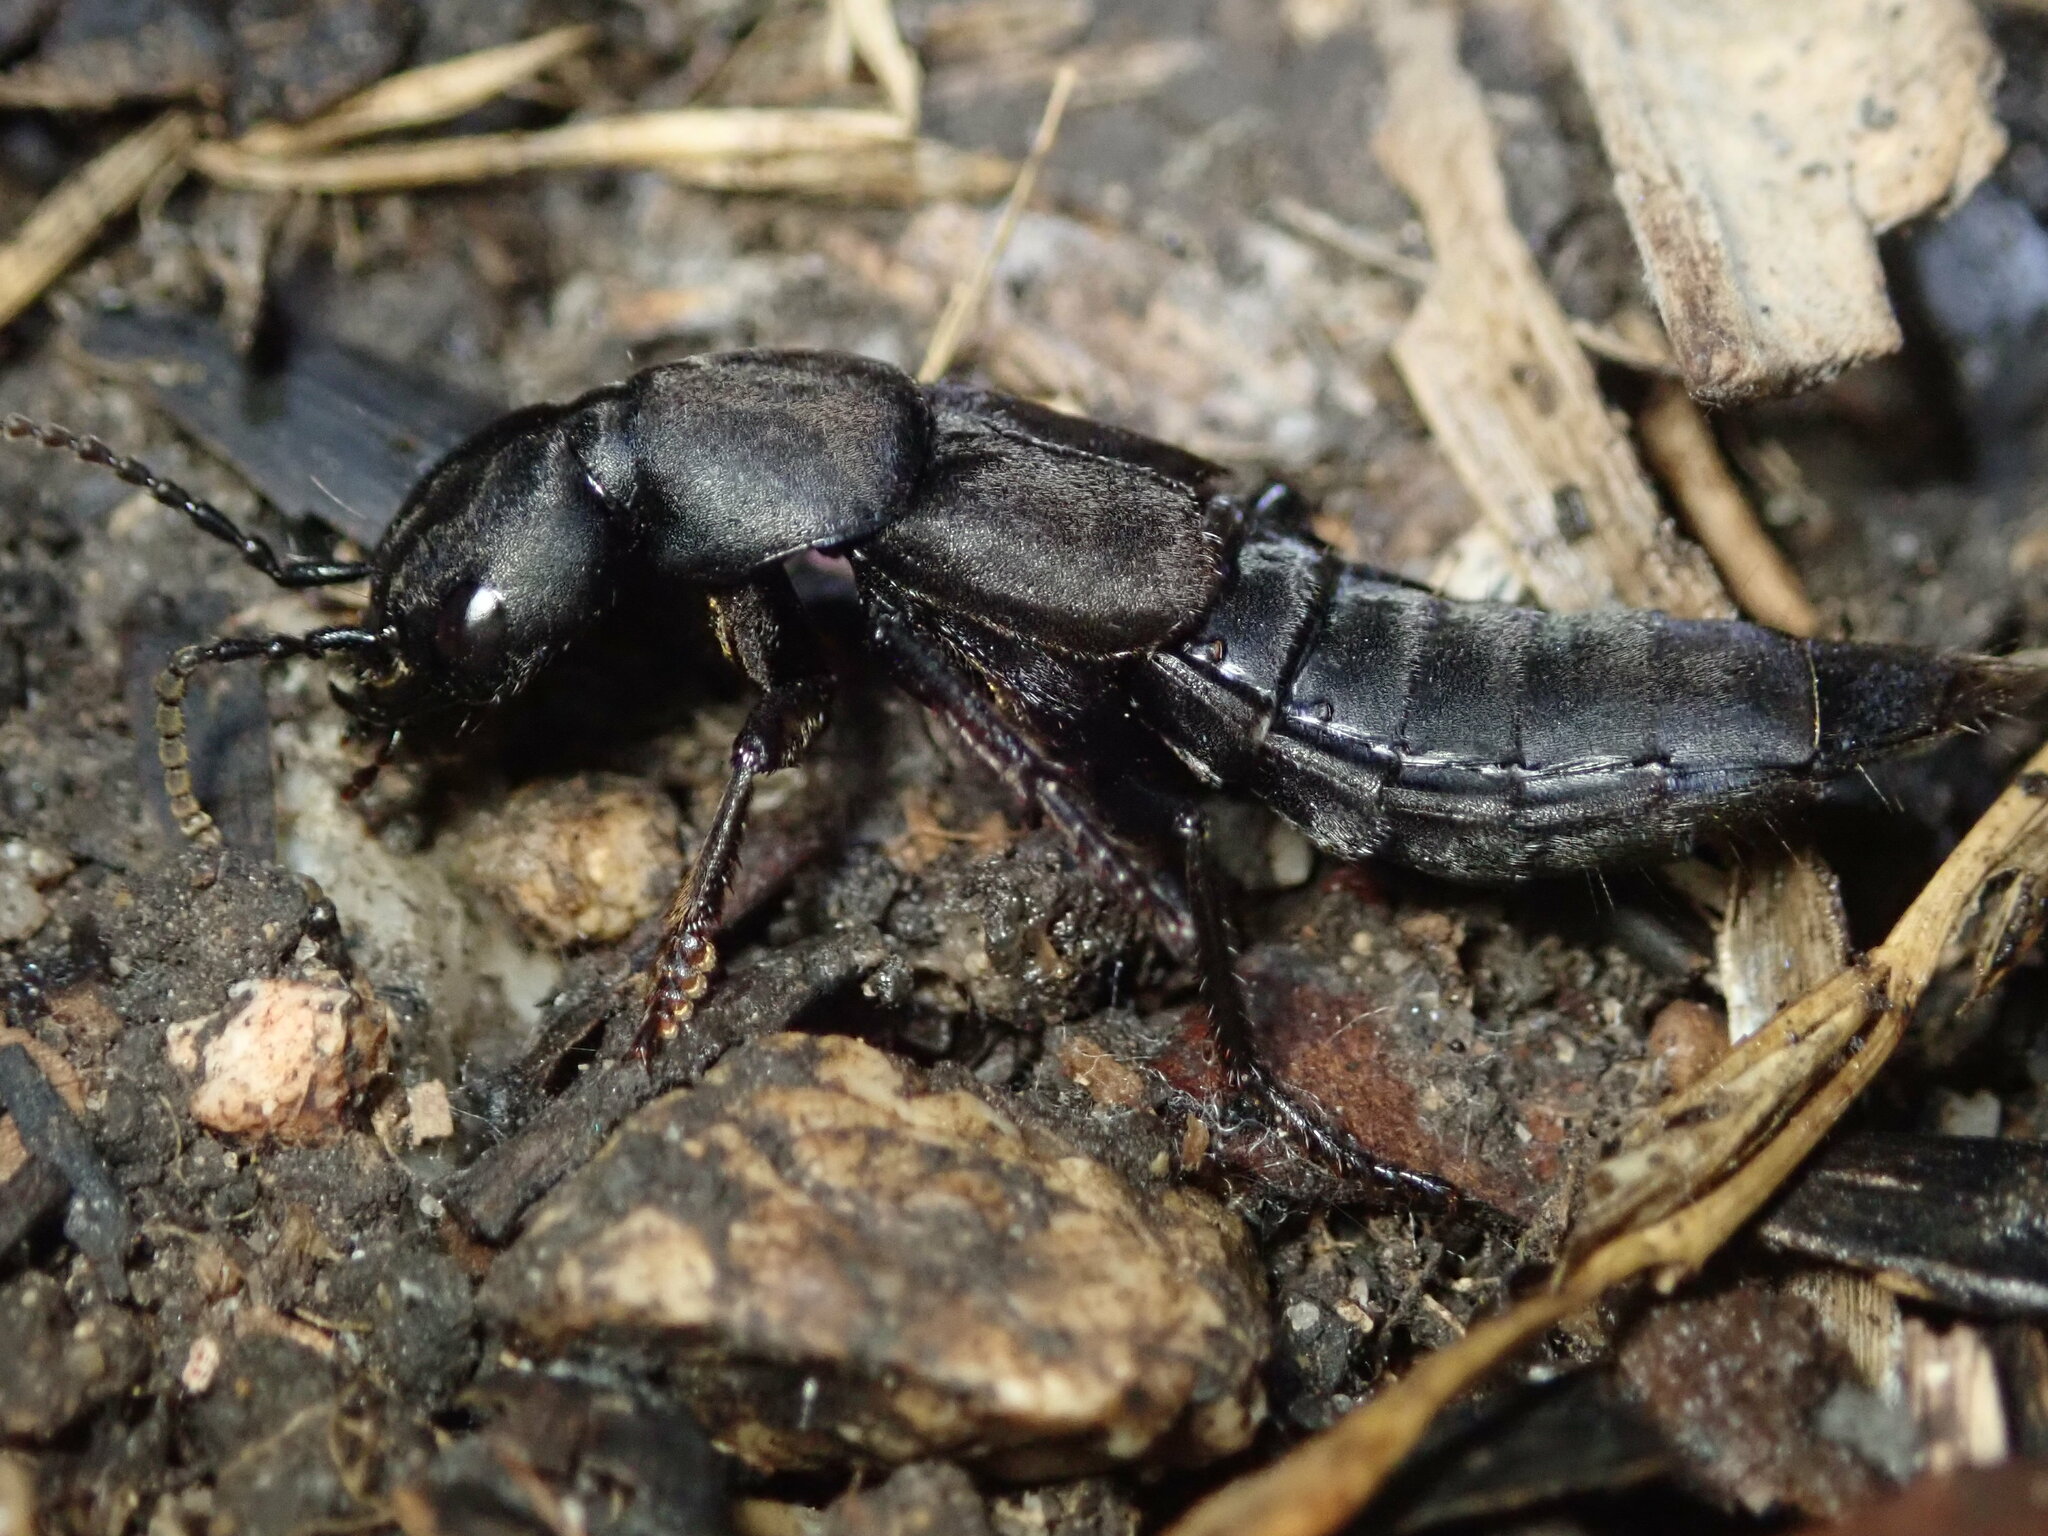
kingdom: Animalia
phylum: Arthropoda
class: Insecta
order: Coleoptera
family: Staphylinidae
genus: Ocypus
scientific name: Ocypus olens
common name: Devil's coach-horse
